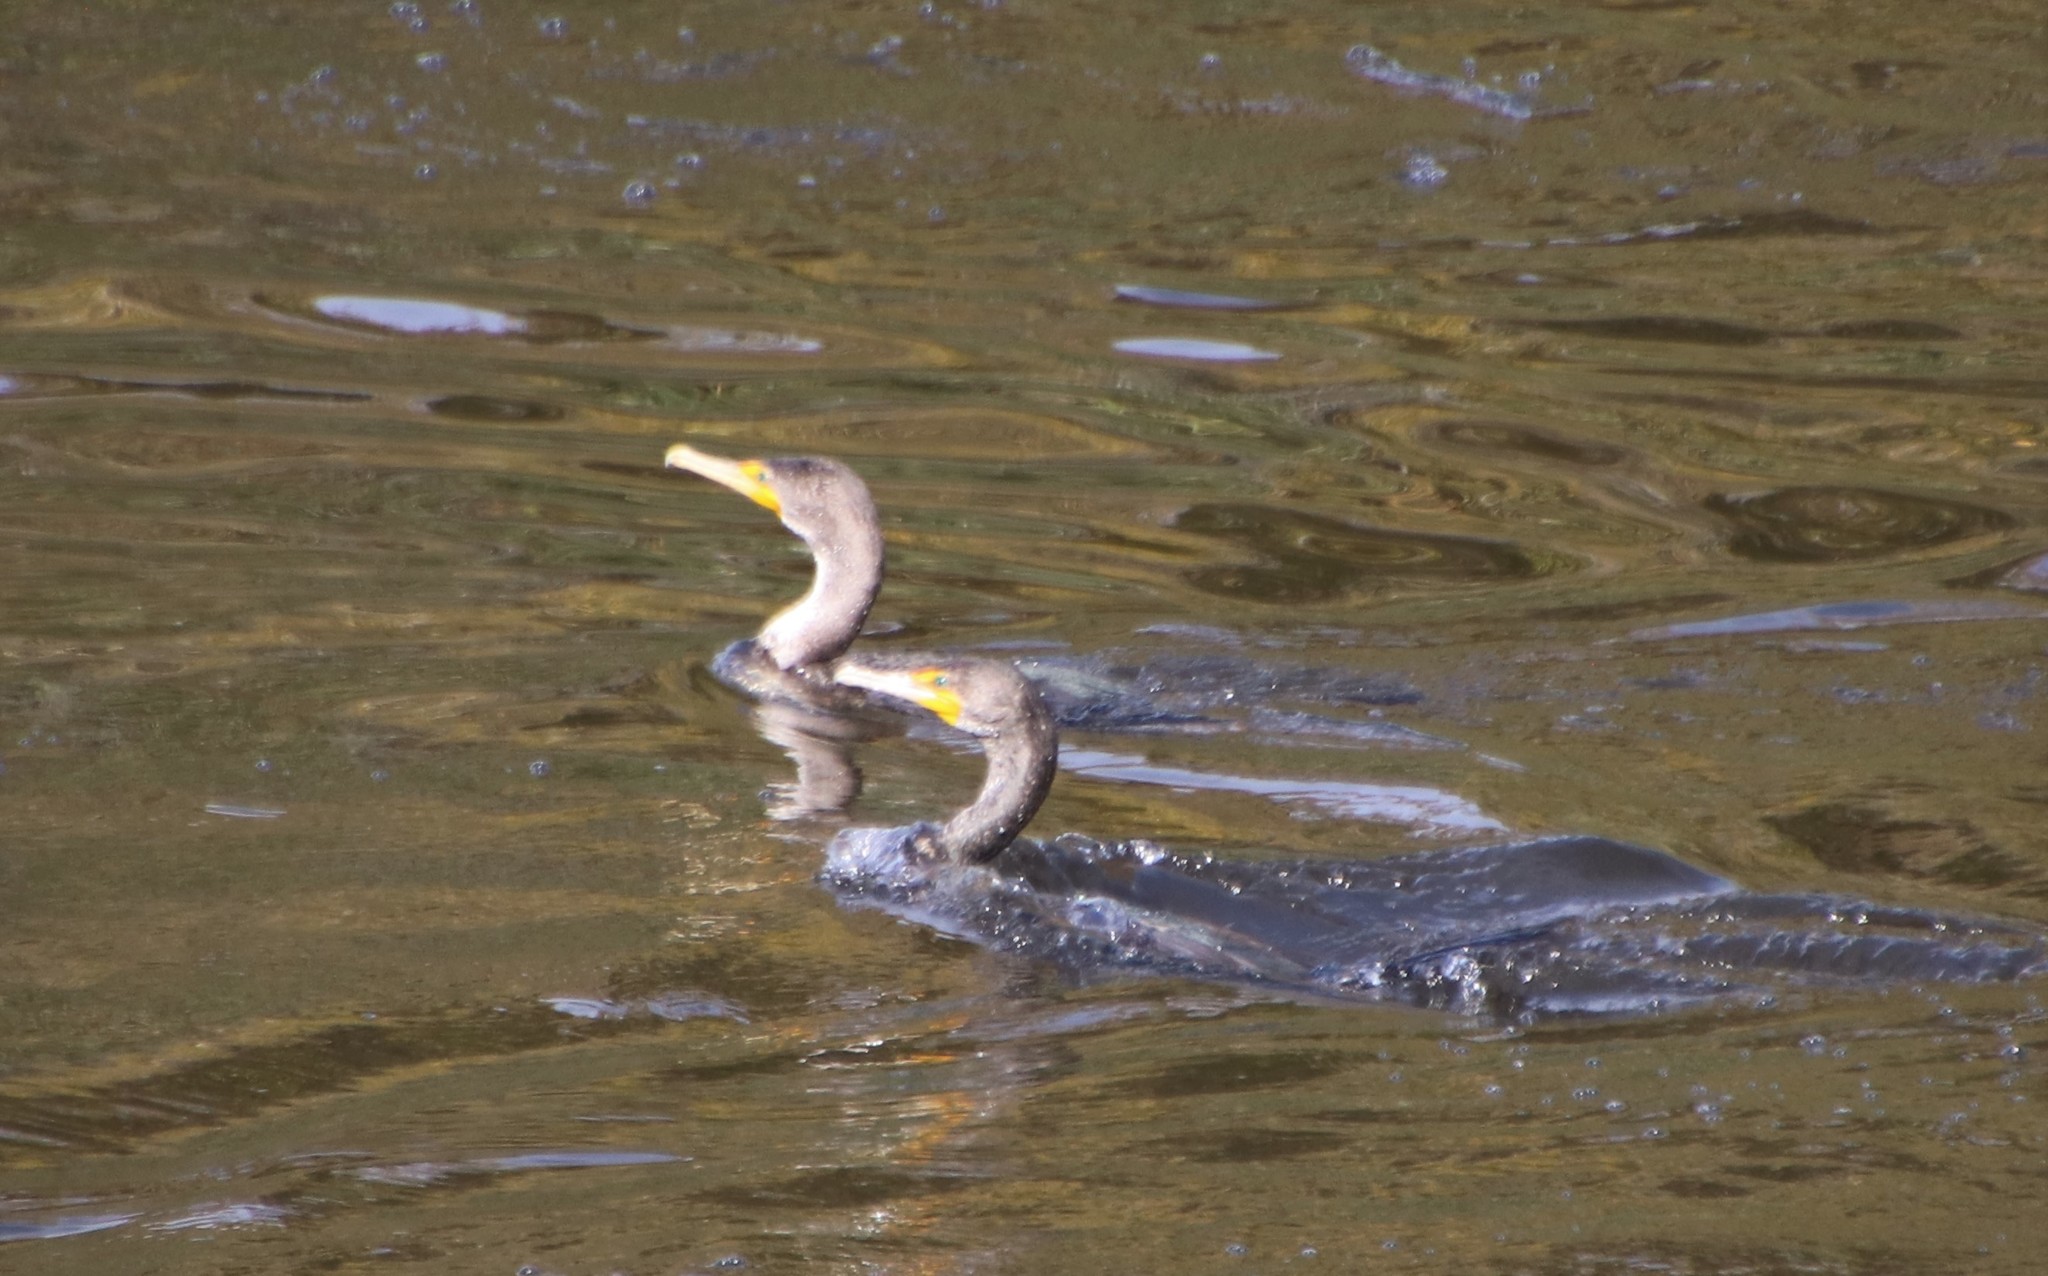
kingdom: Animalia
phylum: Chordata
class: Aves
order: Suliformes
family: Phalacrocoracidae
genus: Phalacrocorax
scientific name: Phalacrocorax auritus
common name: Double-crested cormorant
